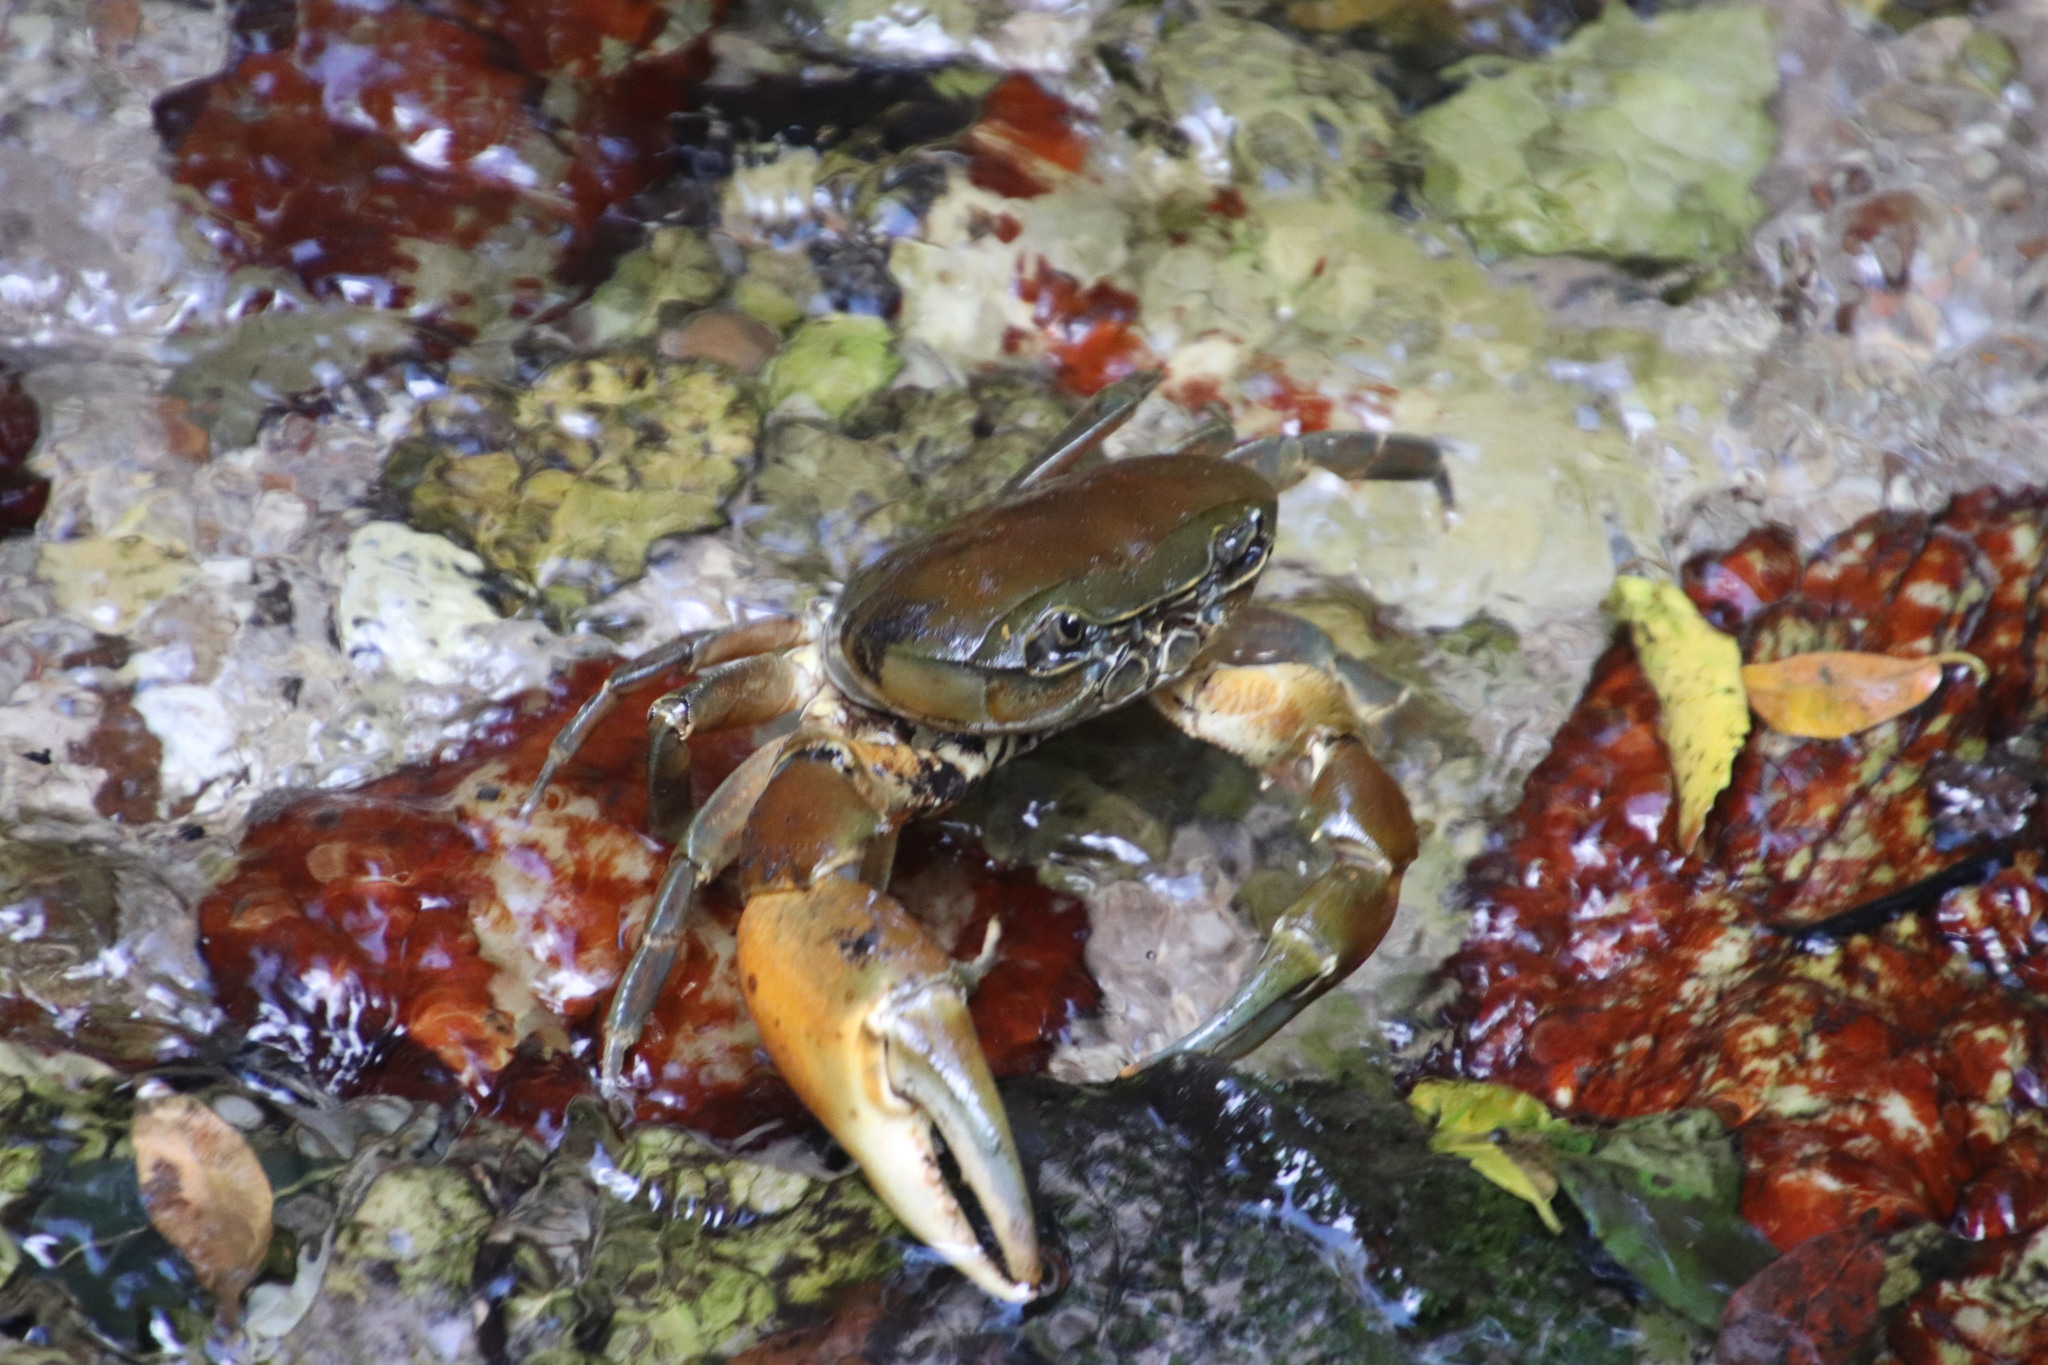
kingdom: Animalia
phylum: Arthropoda
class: Malacostraca
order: Decapoda
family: Potamonautidae
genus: Potamonautes
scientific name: Potamonautes tuerkayi
